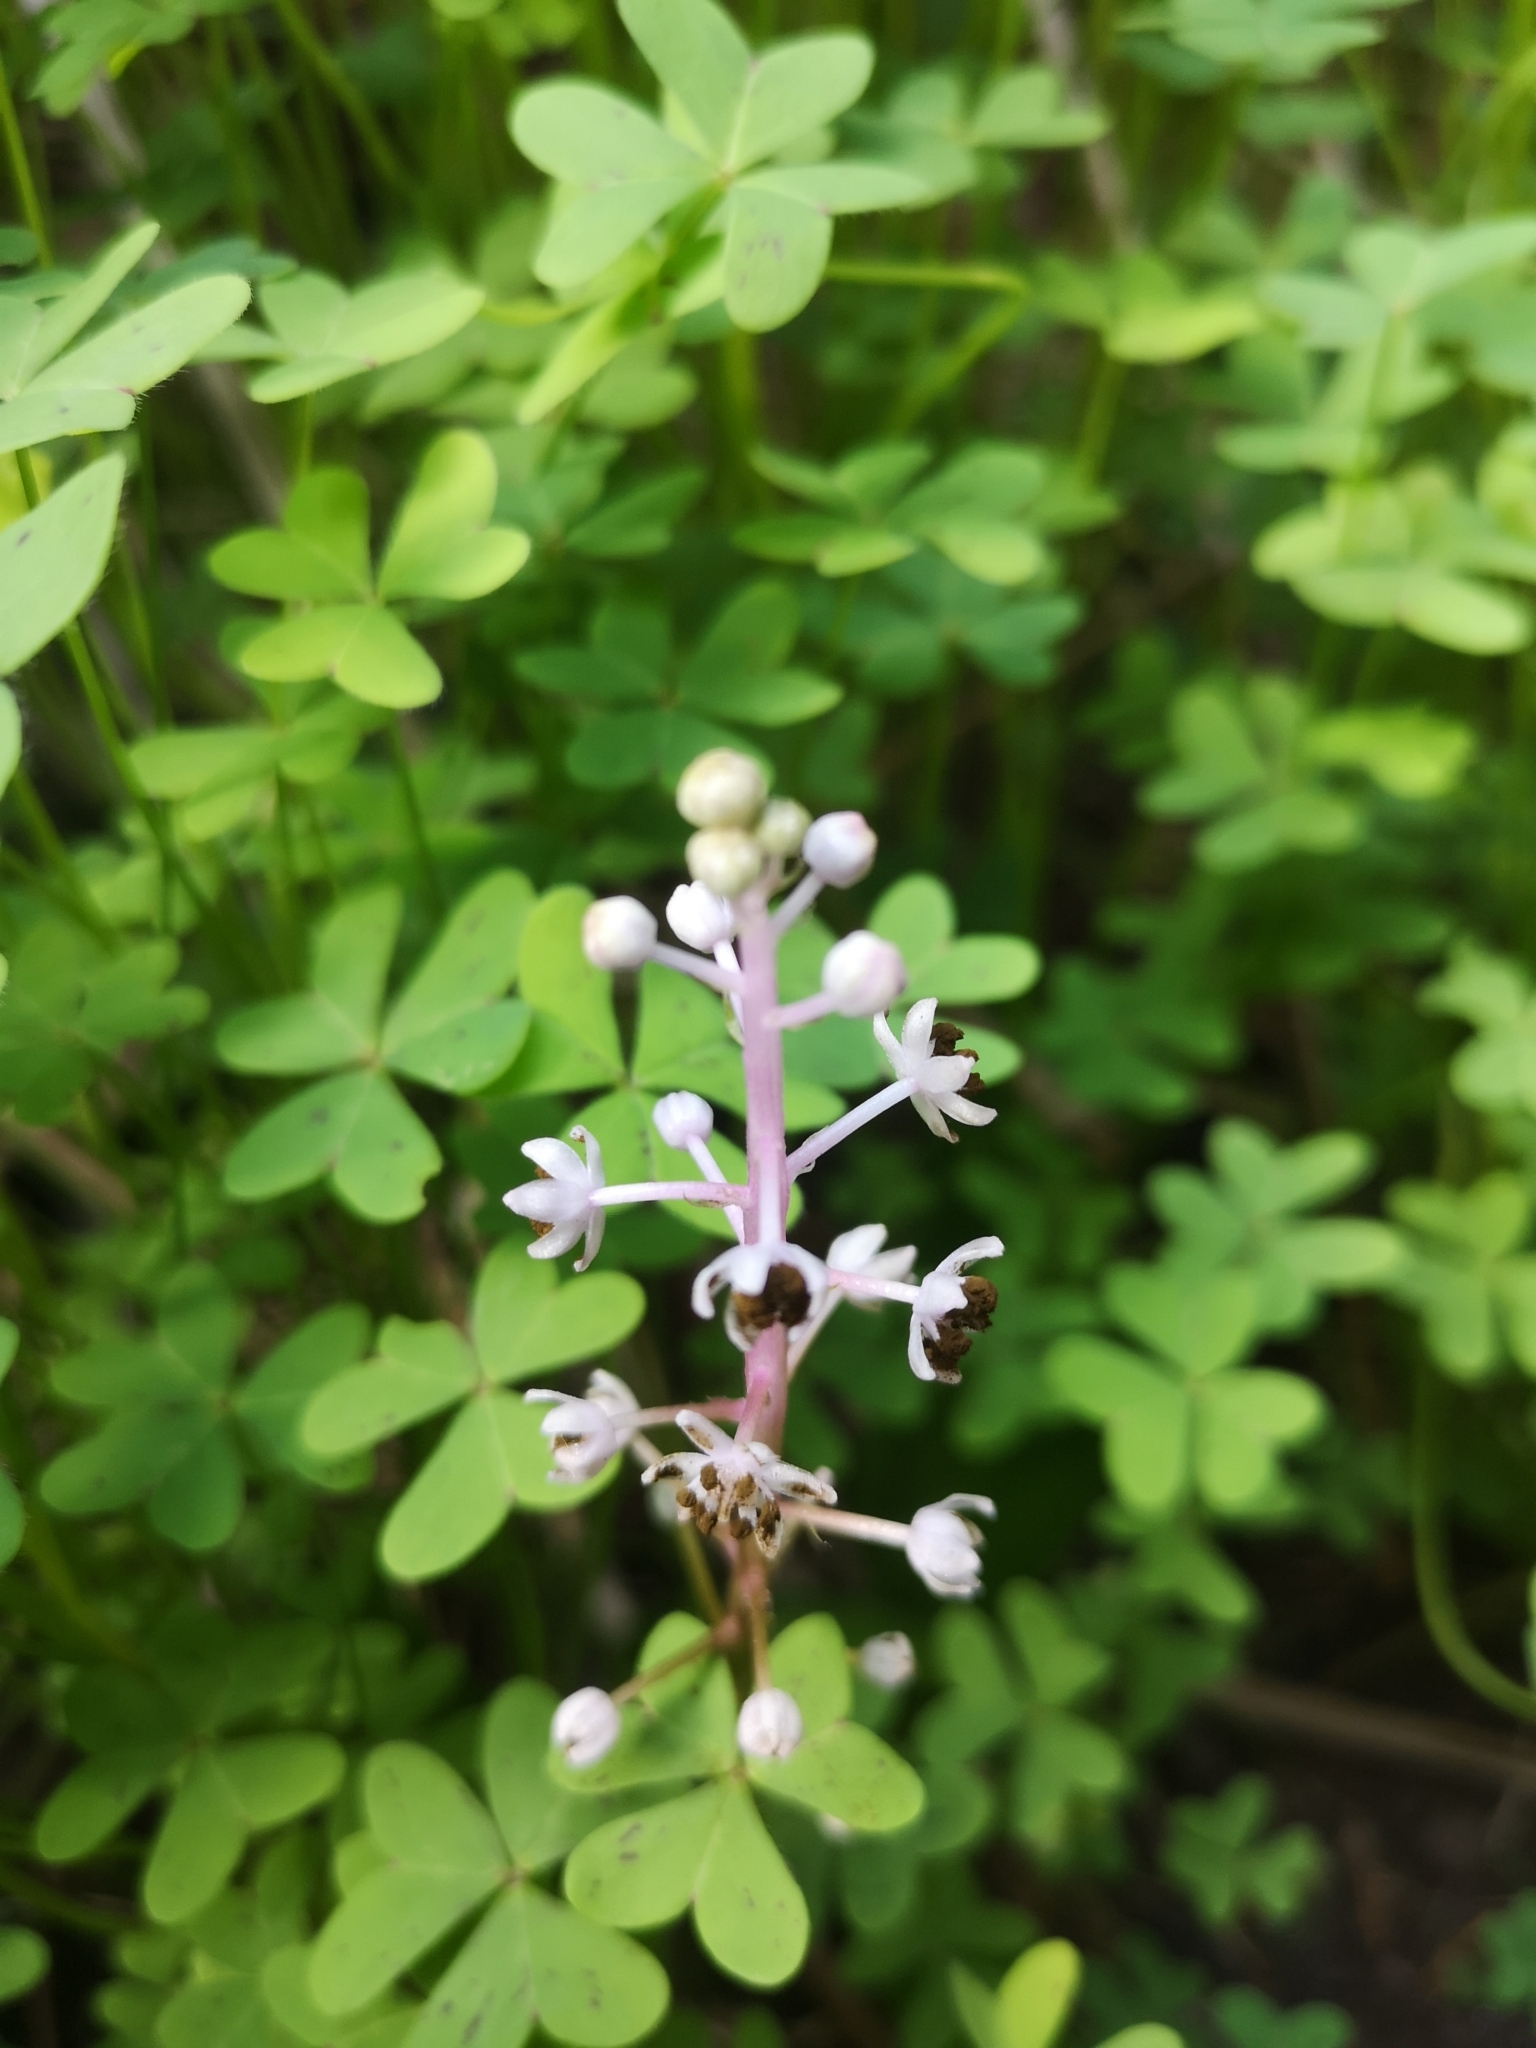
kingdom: Plantae
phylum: Tracheophyta
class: Liliopsida
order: Asparagales
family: Asparagaceae
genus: Scilla
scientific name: Scilla haemorrhoidalis
